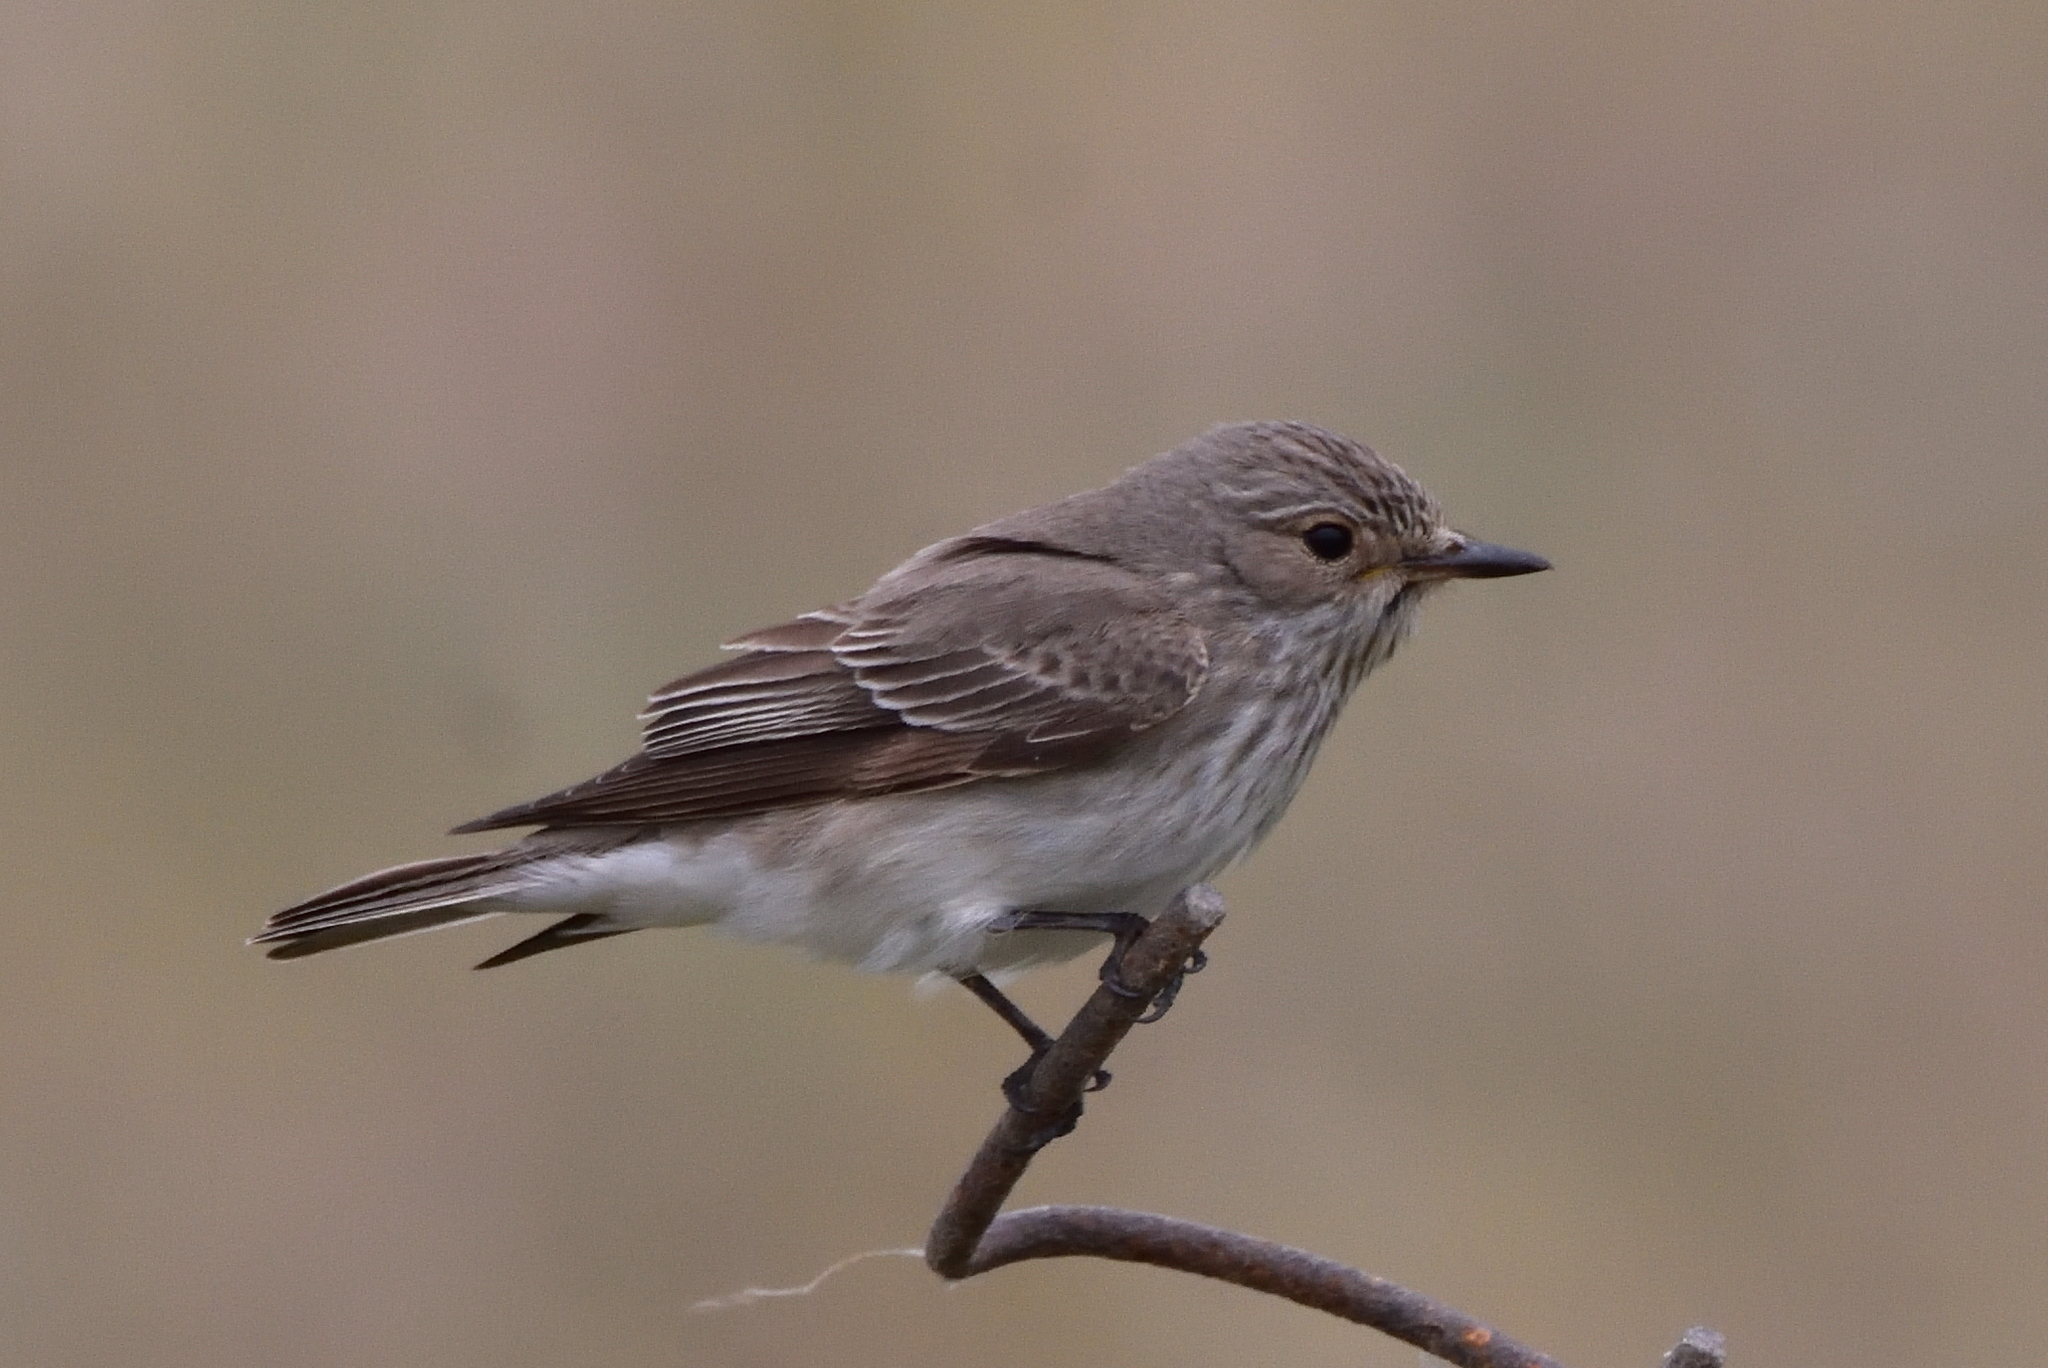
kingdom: Animalia
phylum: Chordata
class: Aves
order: Passeriformes
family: Muscicapidae
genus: Muscicapa
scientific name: Muscicapa striata
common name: Spotted flycatcher
